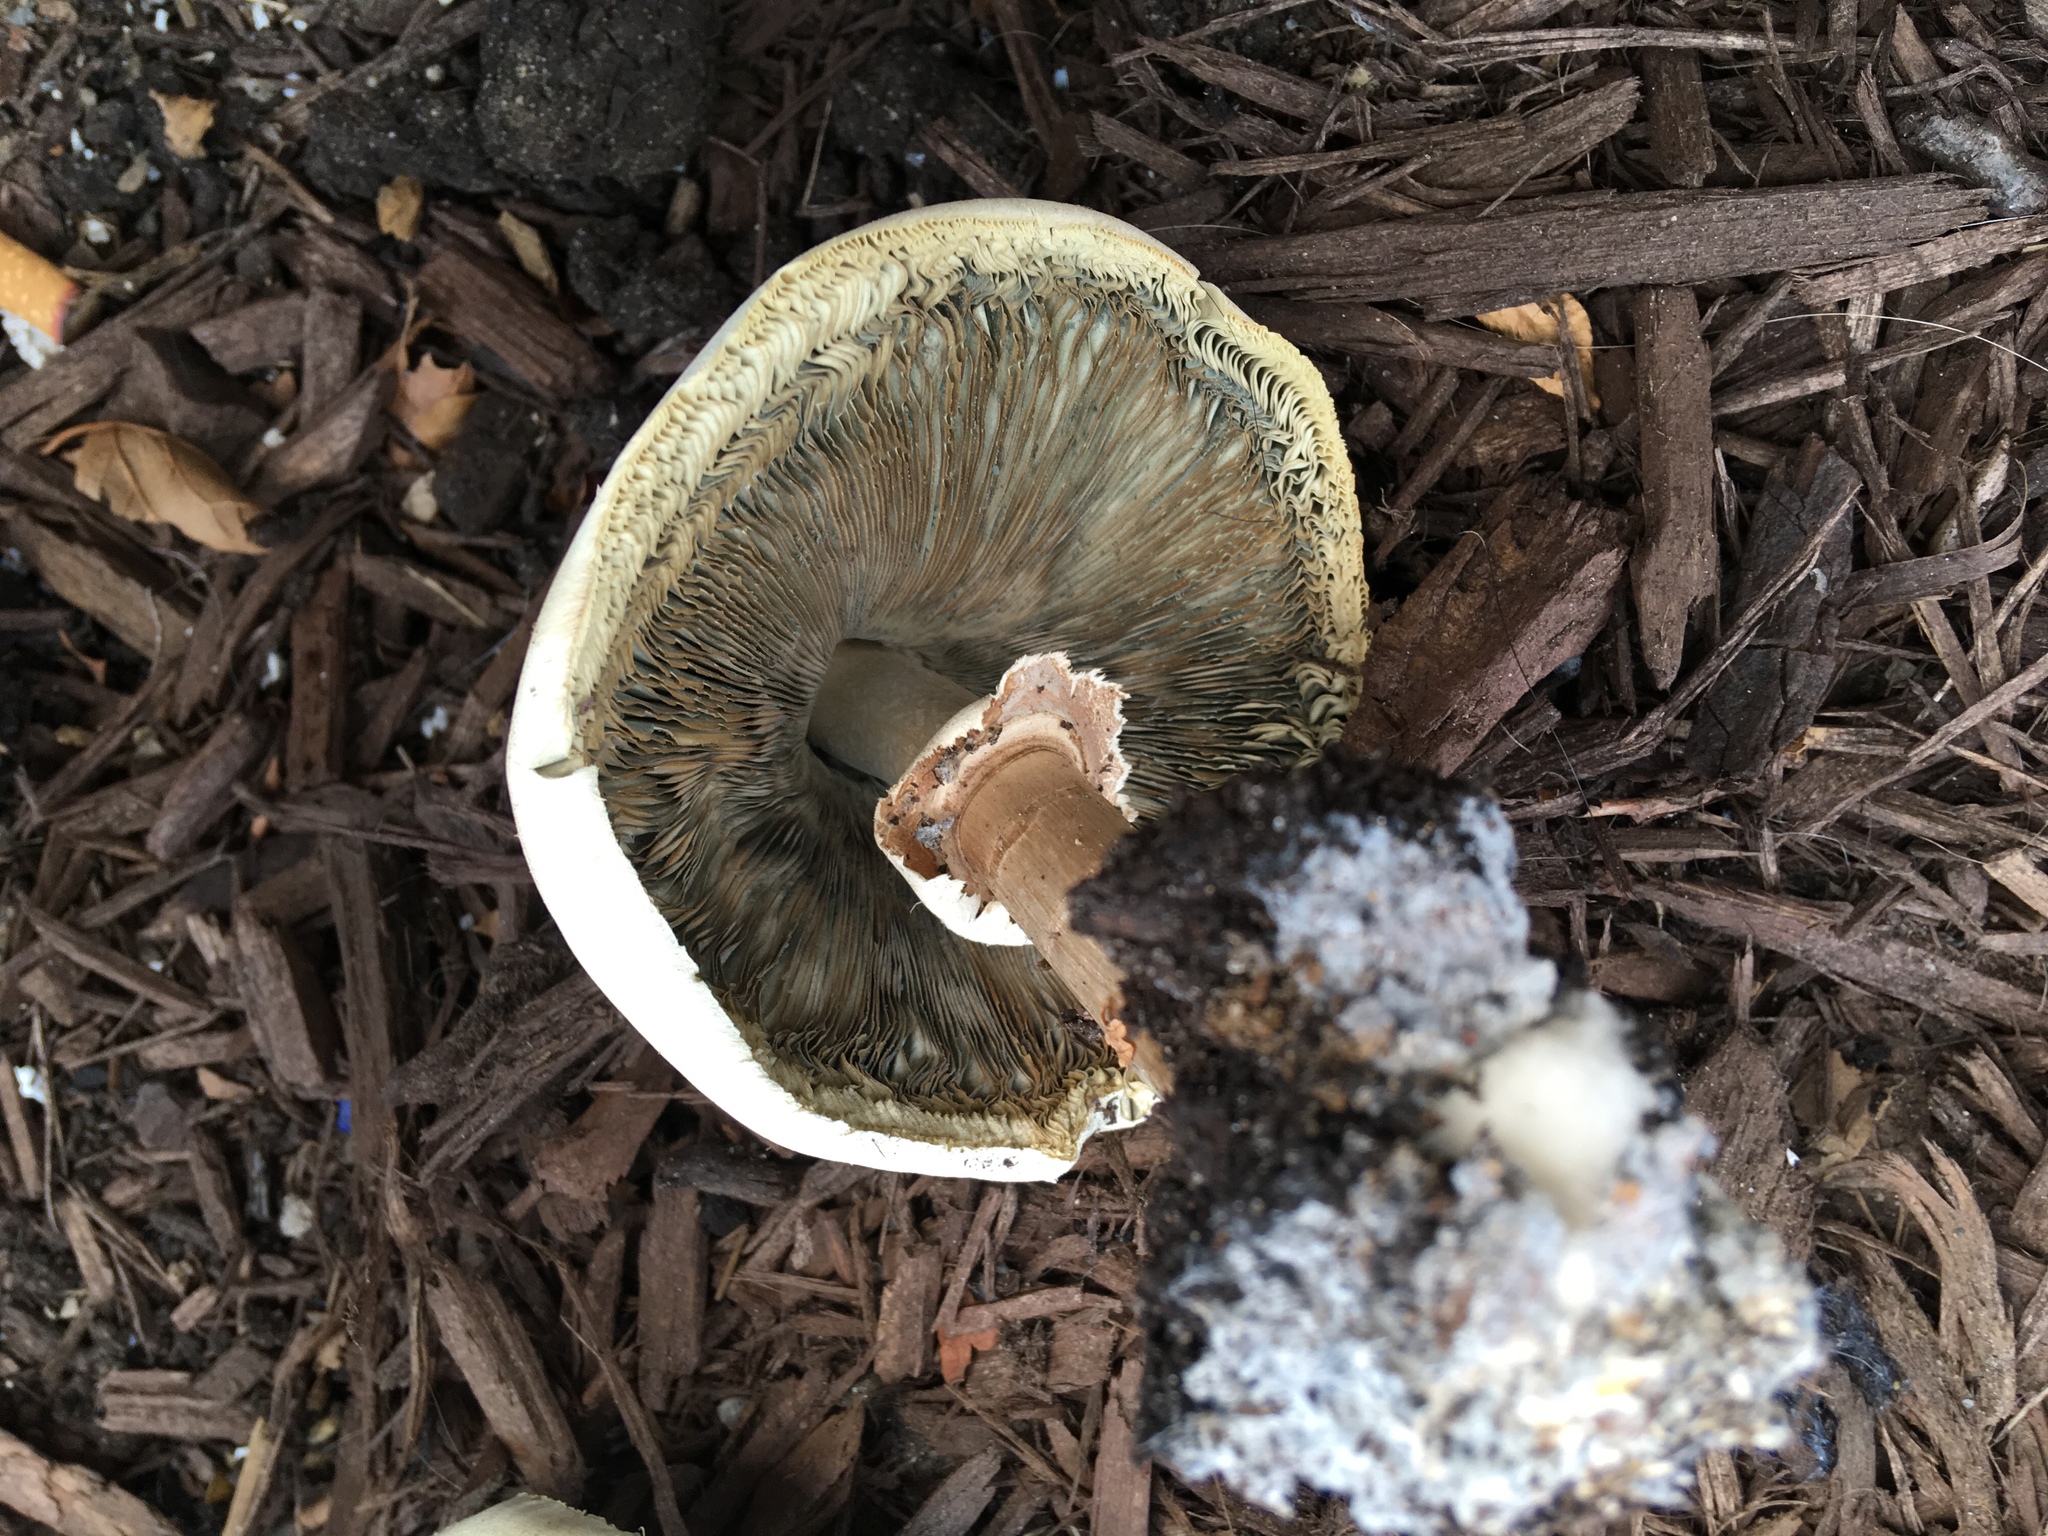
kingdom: Fungi
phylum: Basidiomycota
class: Agaricomycetes
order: Agaricales
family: Agaricaceae
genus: Chlorophyllum
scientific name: Chlorophyllum molybdites
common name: False parasol
